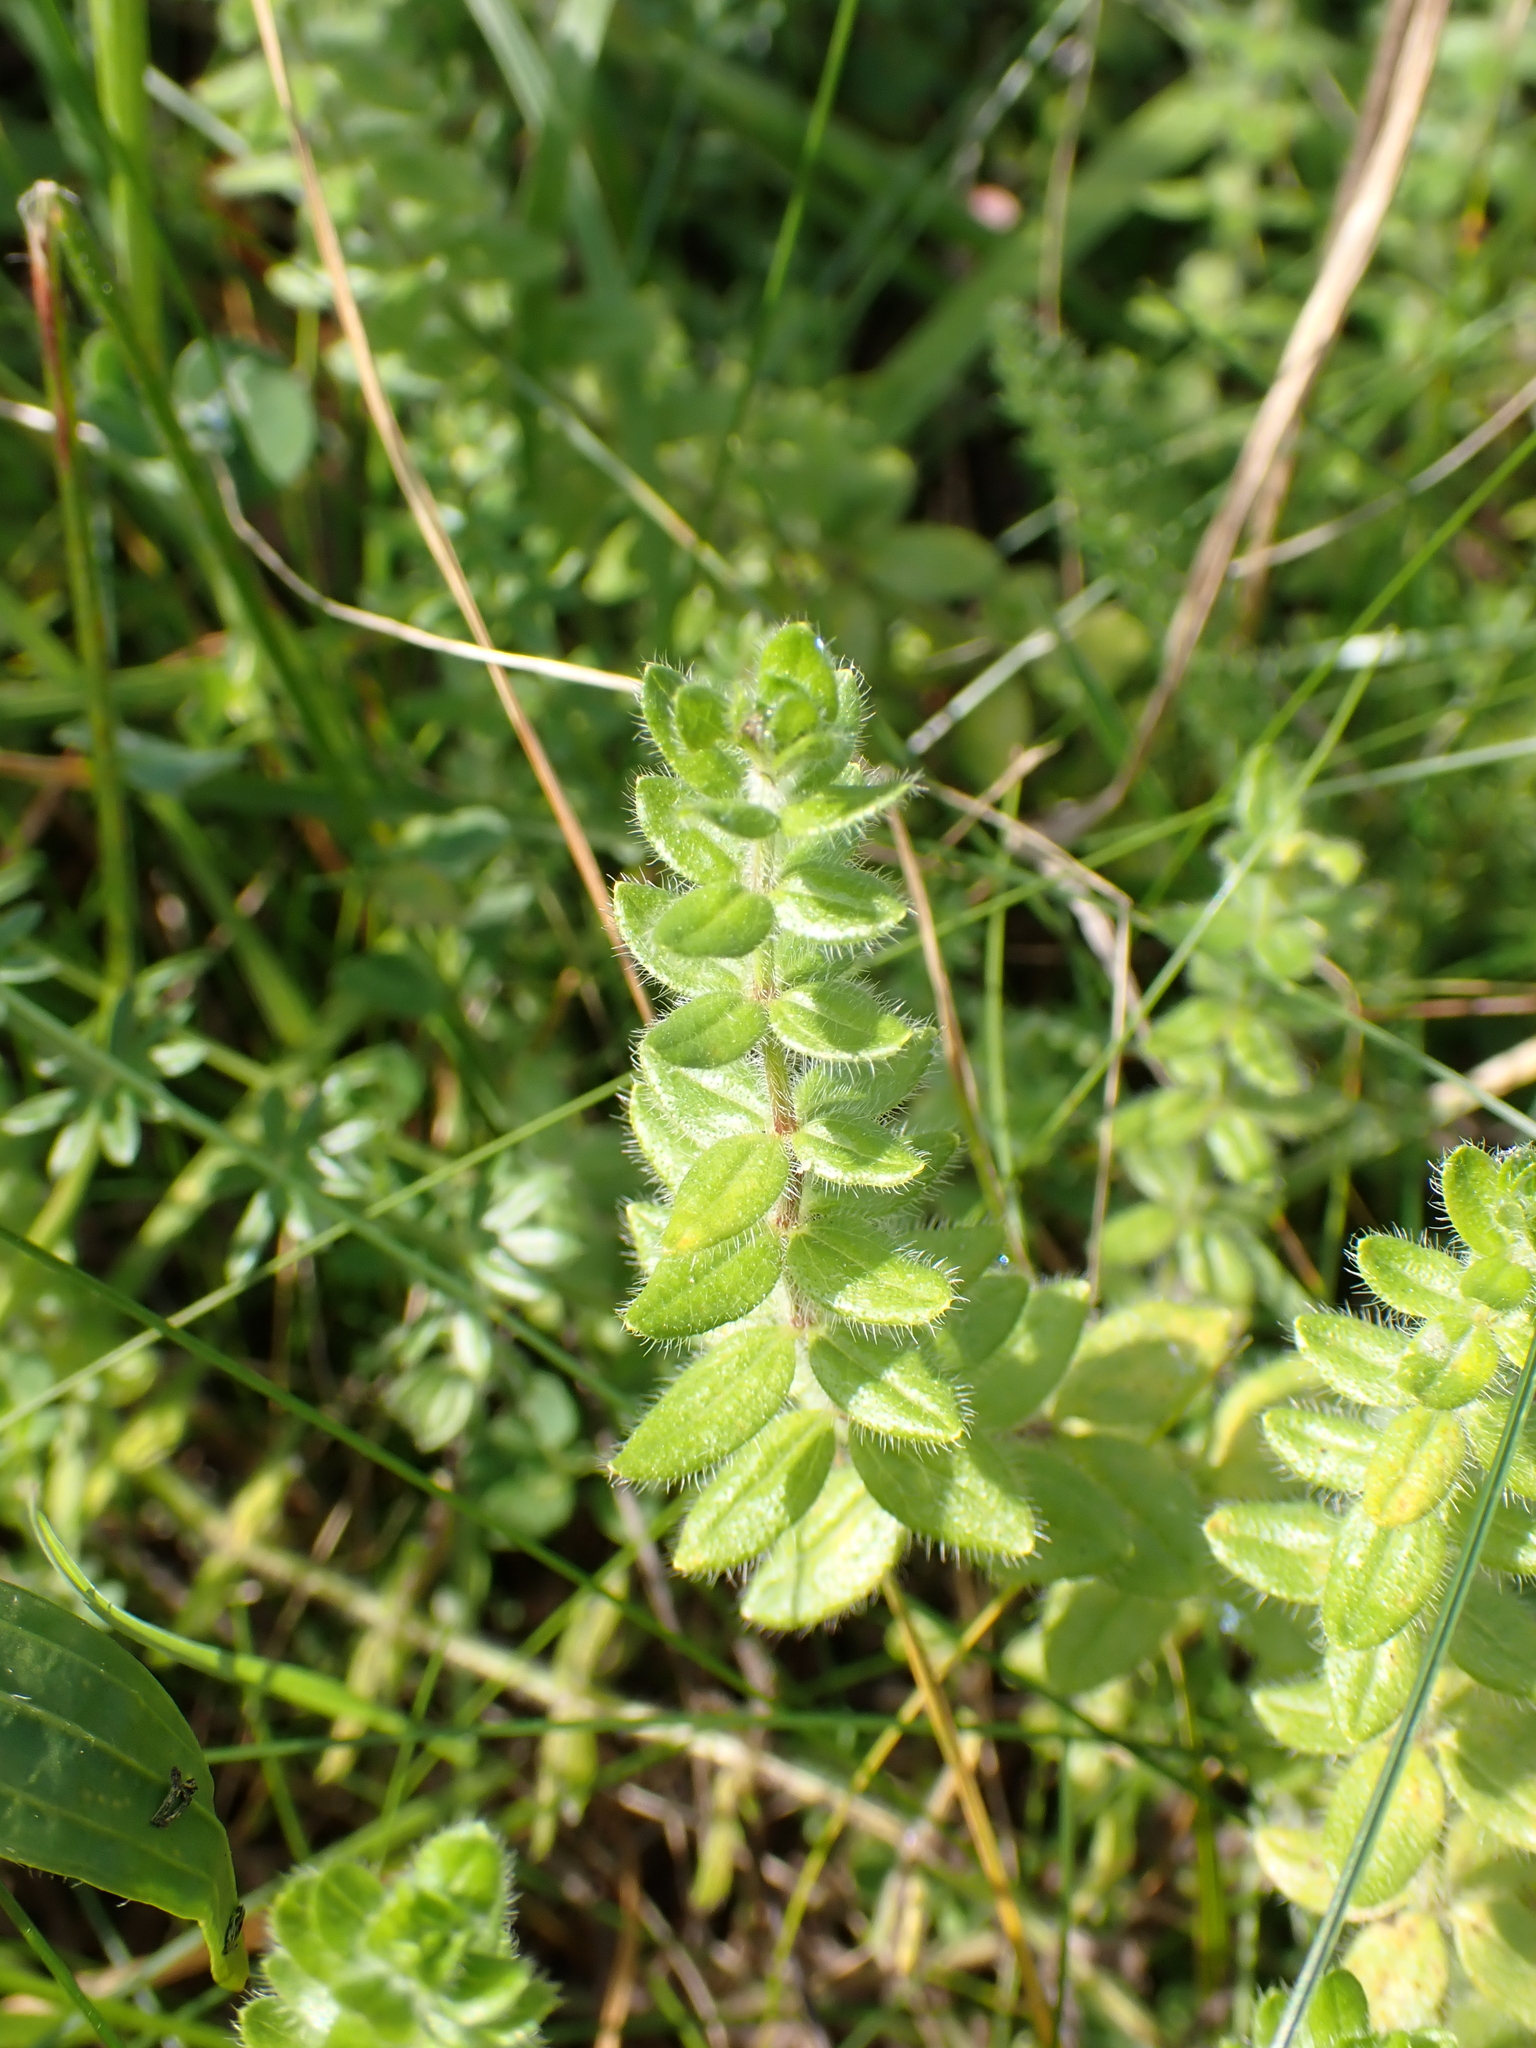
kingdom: Plantae
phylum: Tracheophyta
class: Magnoliopsida
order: Gentianales
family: Rubiaceae
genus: Cruciata
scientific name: Cruciata laevipes
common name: Crosswort
